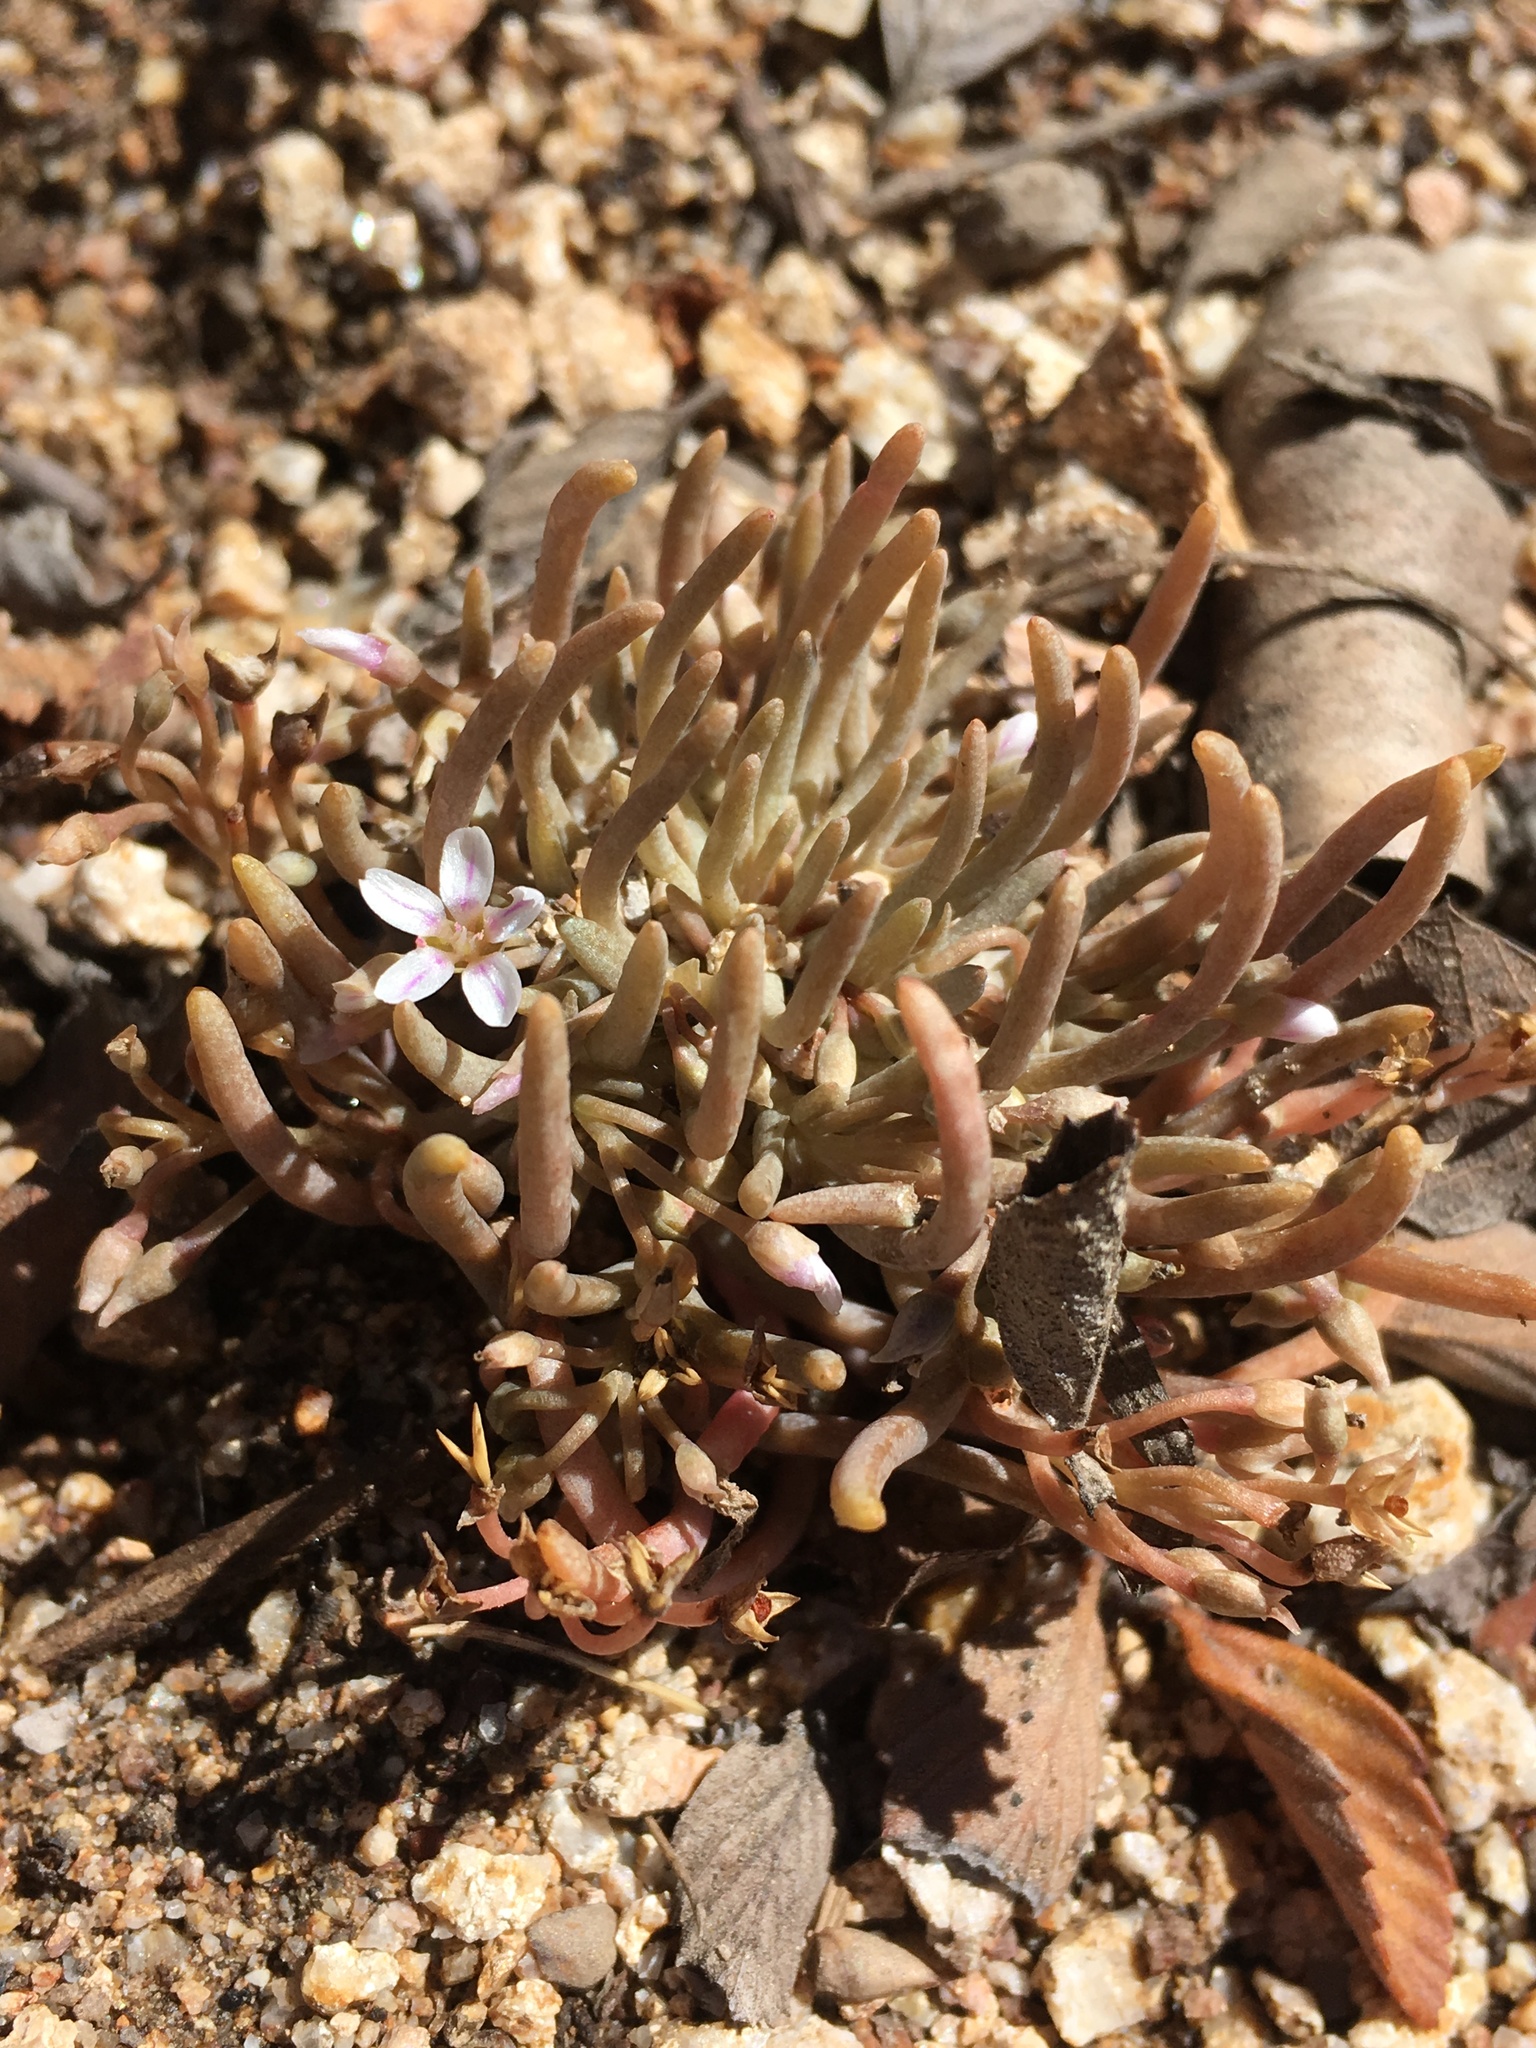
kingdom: Plantae
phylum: Tracheophyta
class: Magnoliopsida
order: Caryophyllales
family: Montiaceae
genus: Claytonia
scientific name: Claytonia exigua
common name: Pale spring beauty
